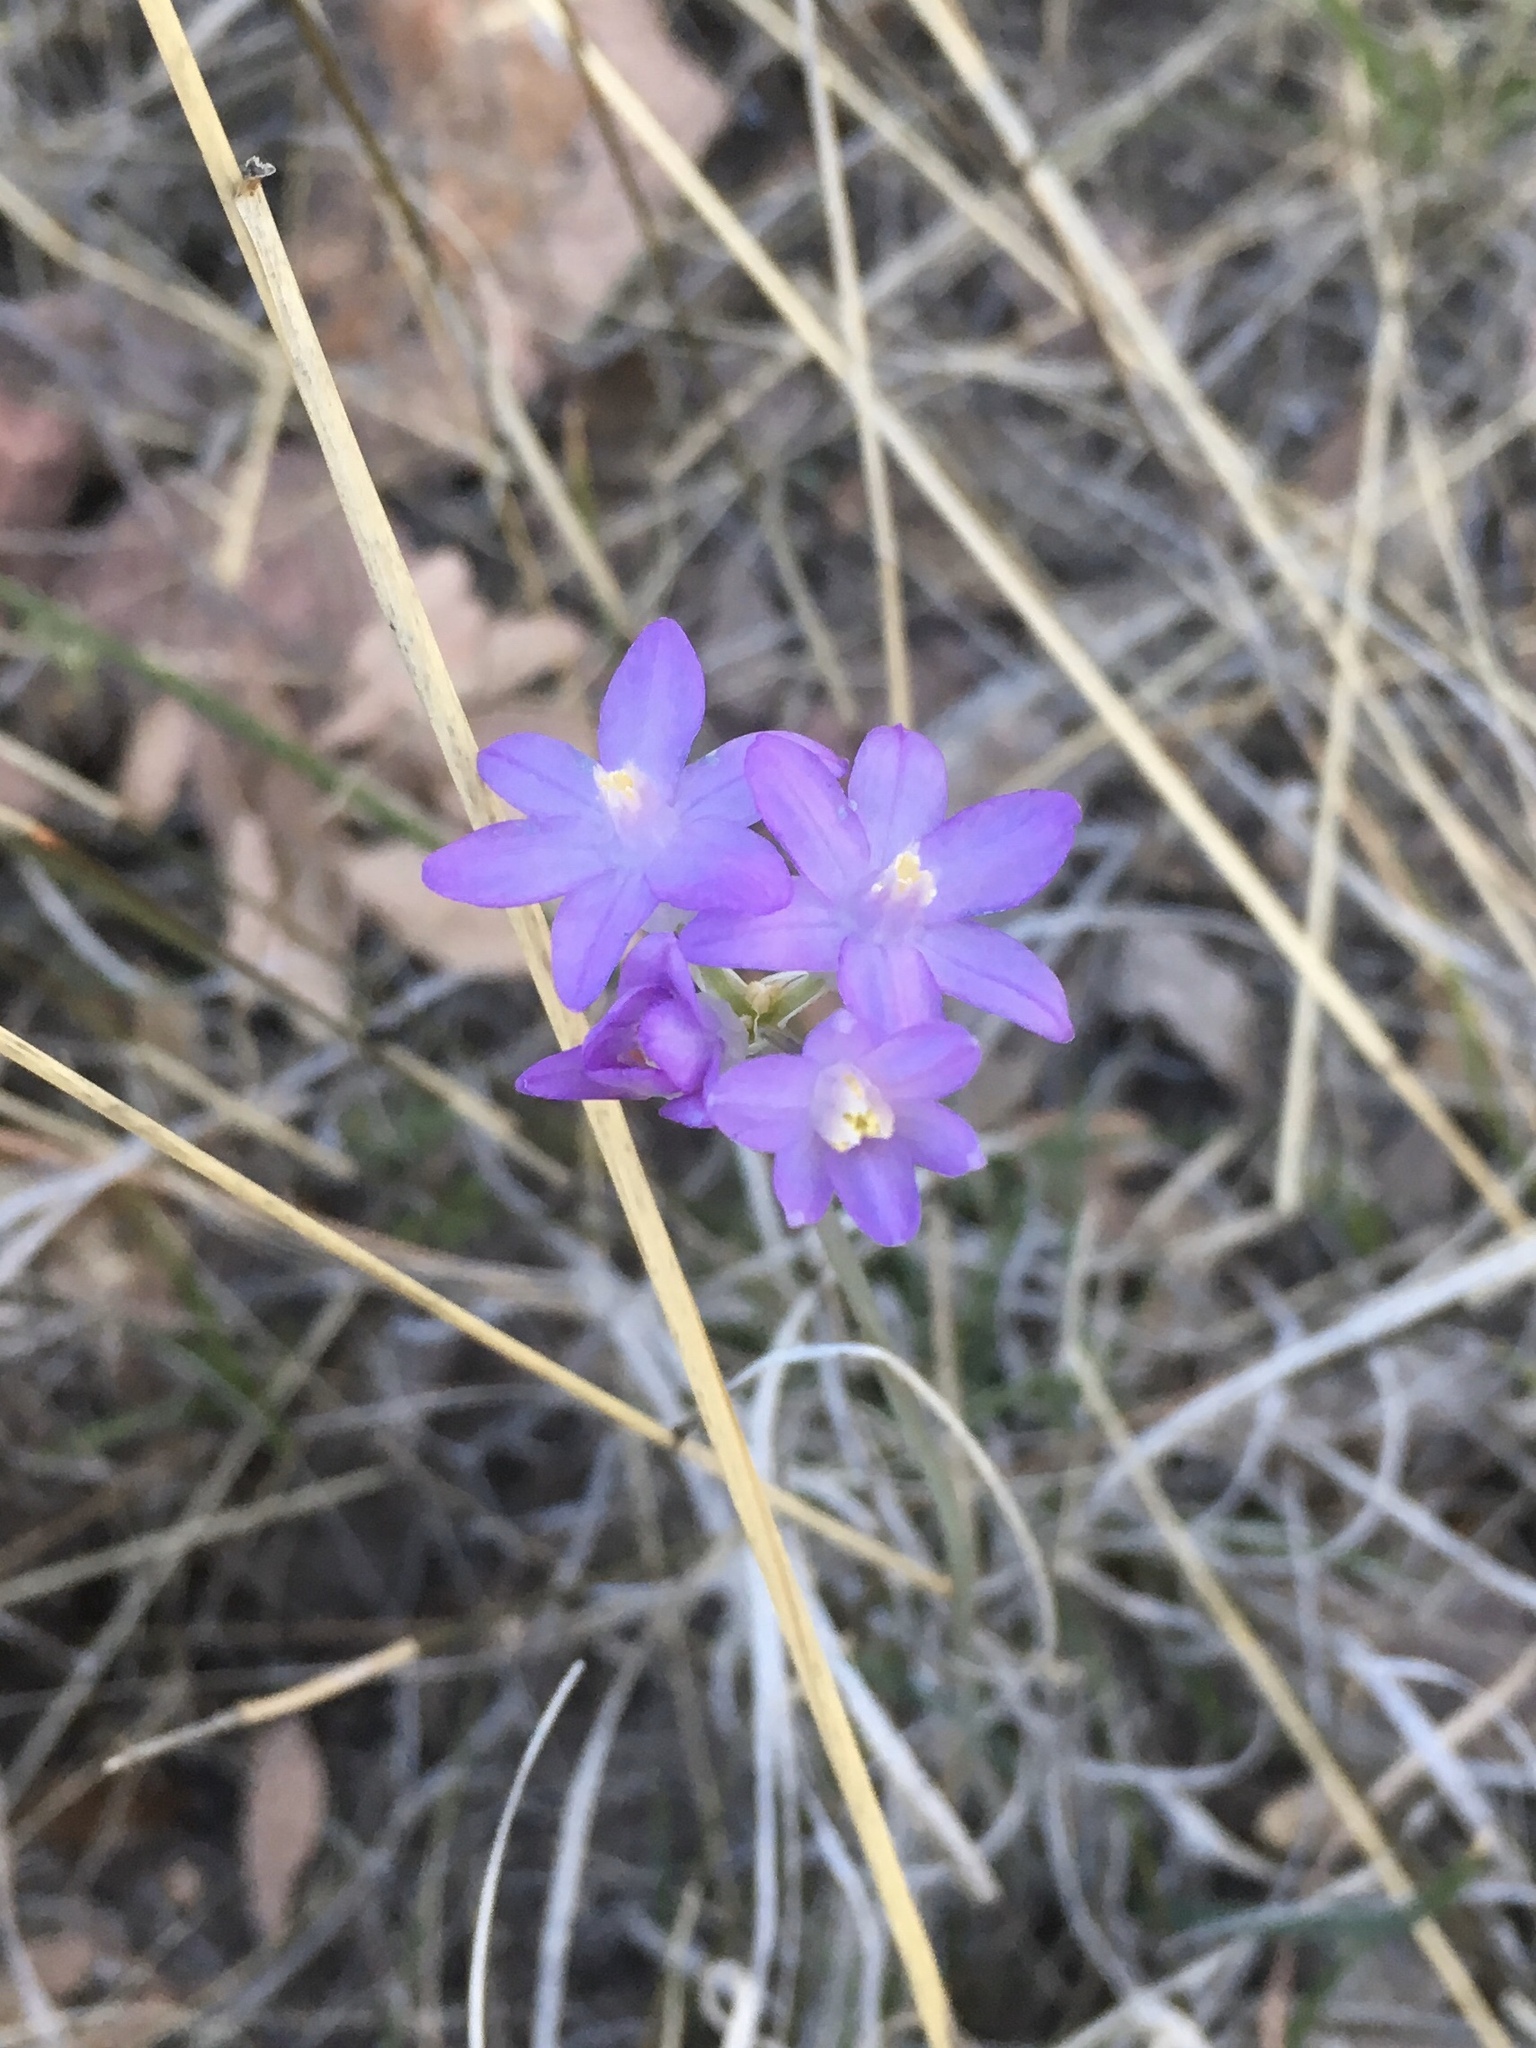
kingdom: Plantae
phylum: Tracheophyta
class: Liliopsida
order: Asparagales
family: Asparagaceae
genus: Dipterostemon
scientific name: Dipterostemon capitatus
